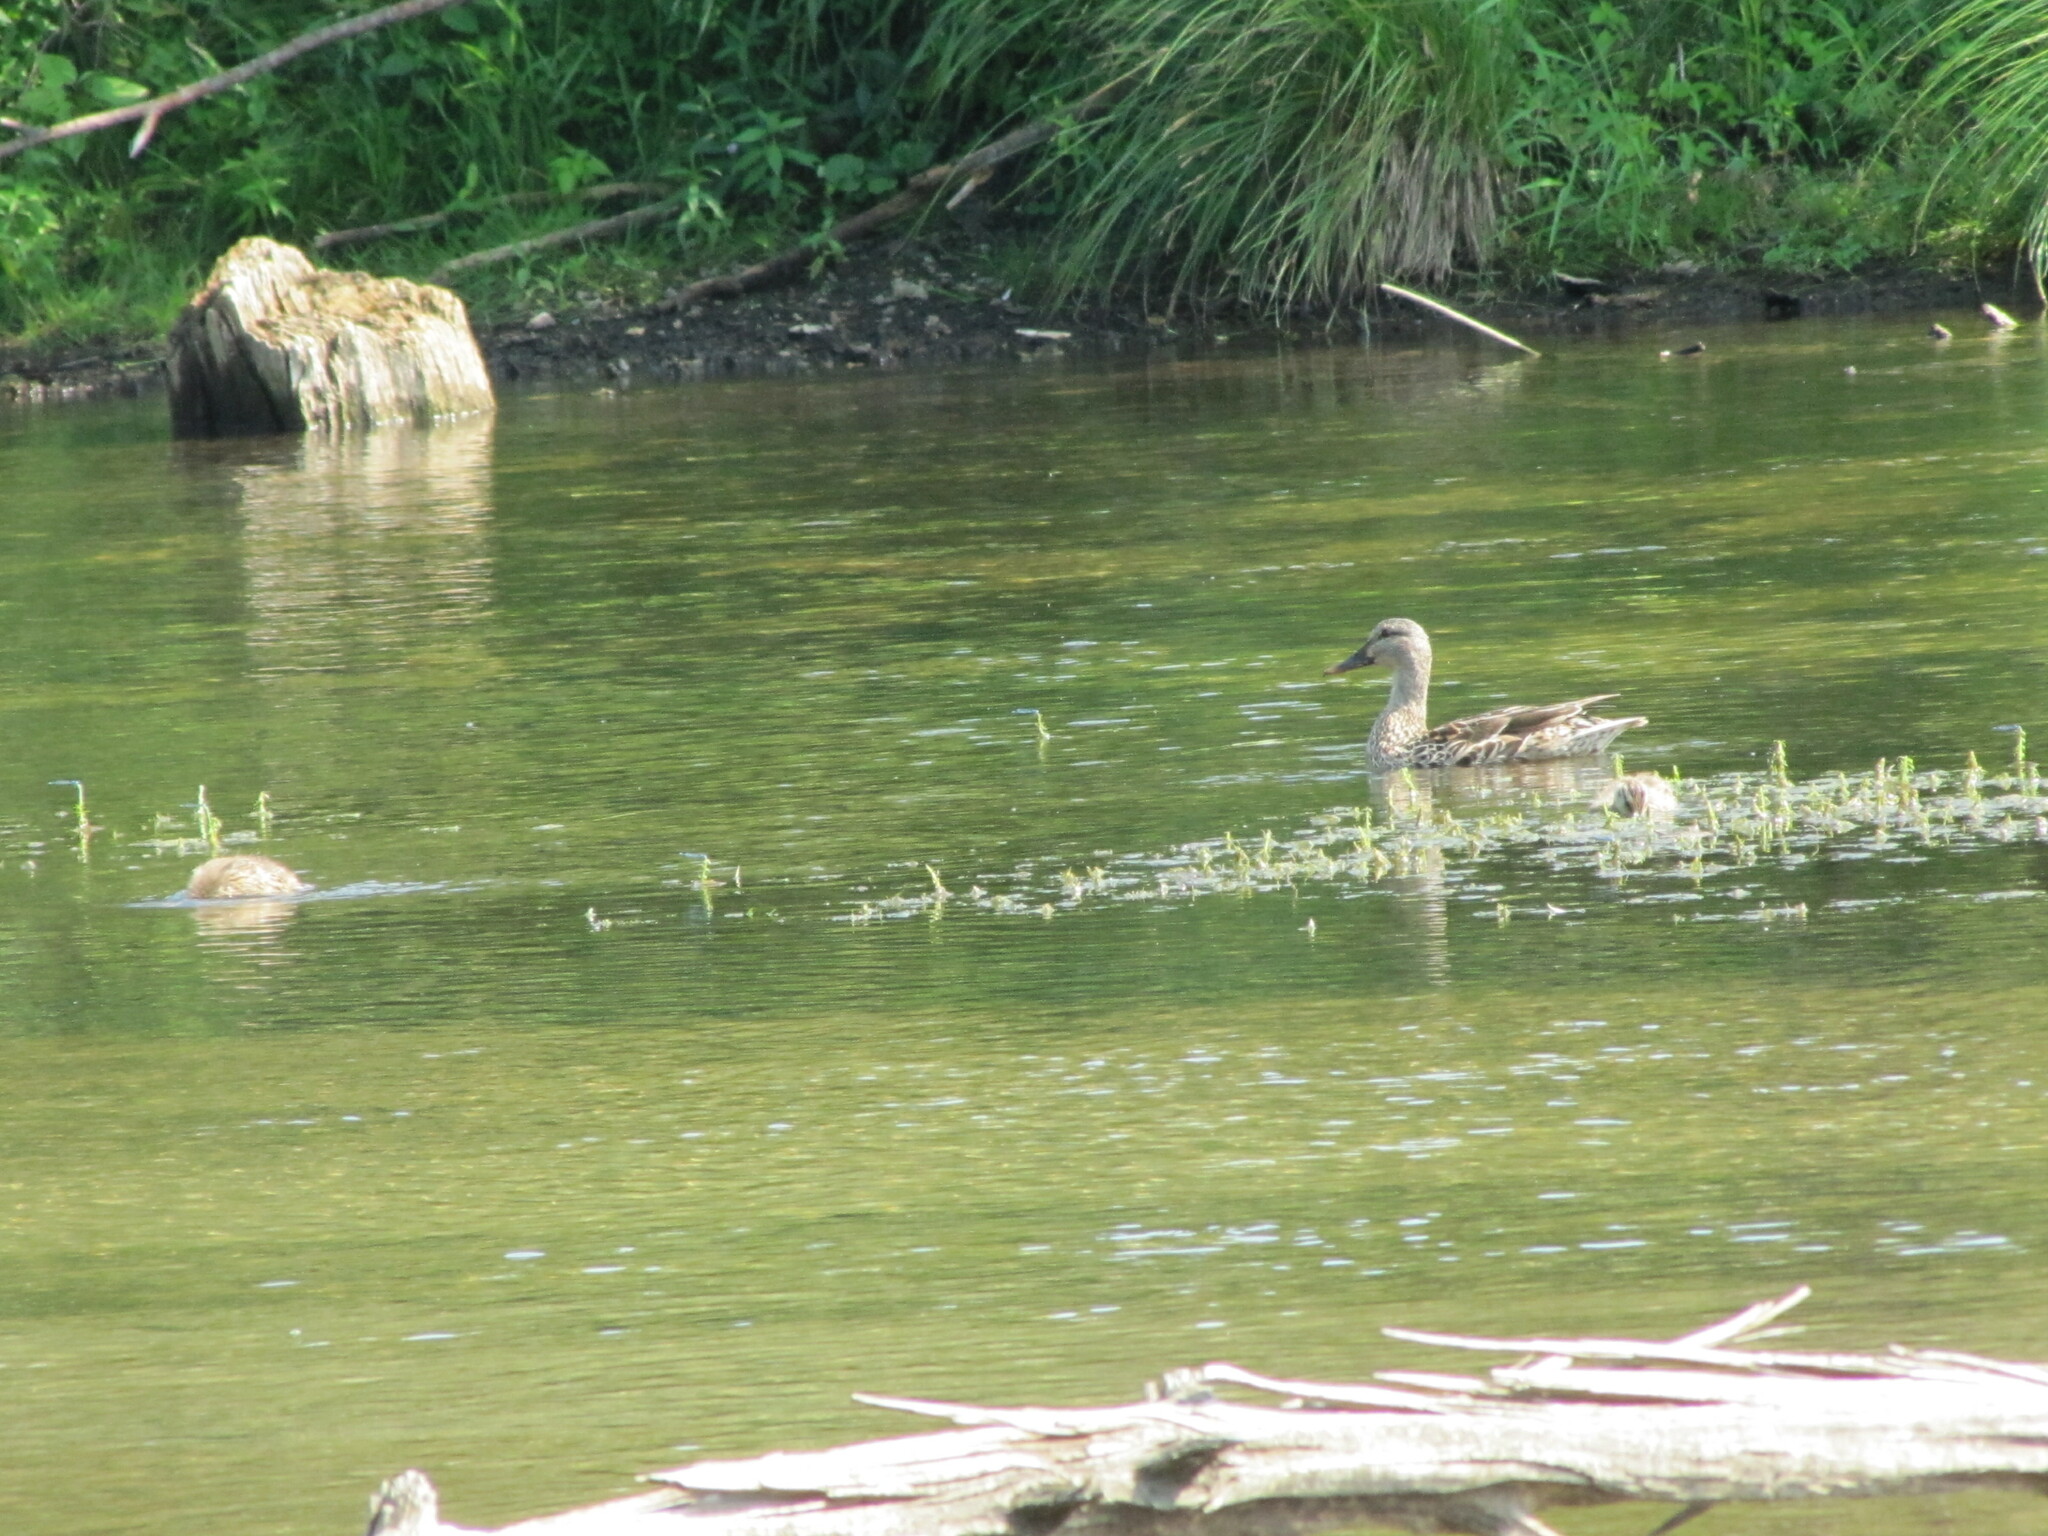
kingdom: Animalia
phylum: Chordata
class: Aves
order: Anseriformes
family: Anatidae
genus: Anas
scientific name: Anas platyrhynchos
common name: Mallard
